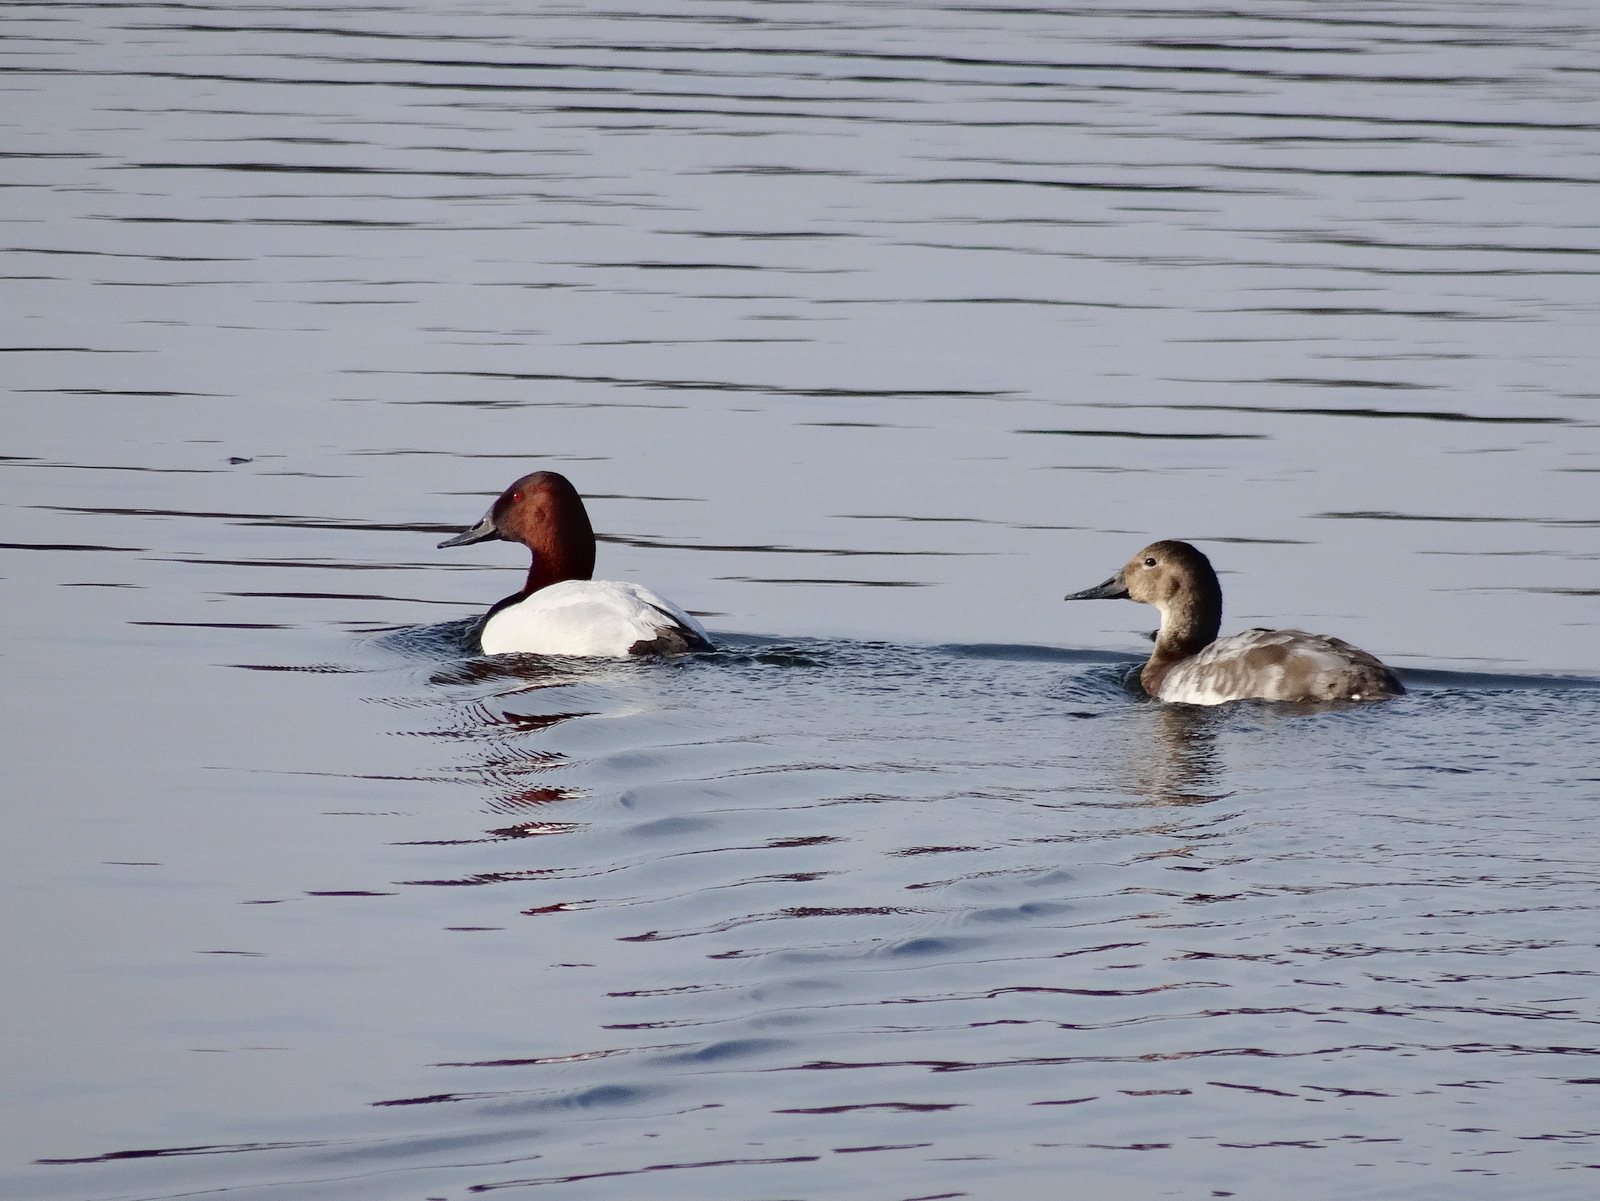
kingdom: Animalia
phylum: Chordata
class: Aves
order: Anseriformes
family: Anatidae
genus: Aythya
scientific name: Aythya valisineria
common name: Canvasback
